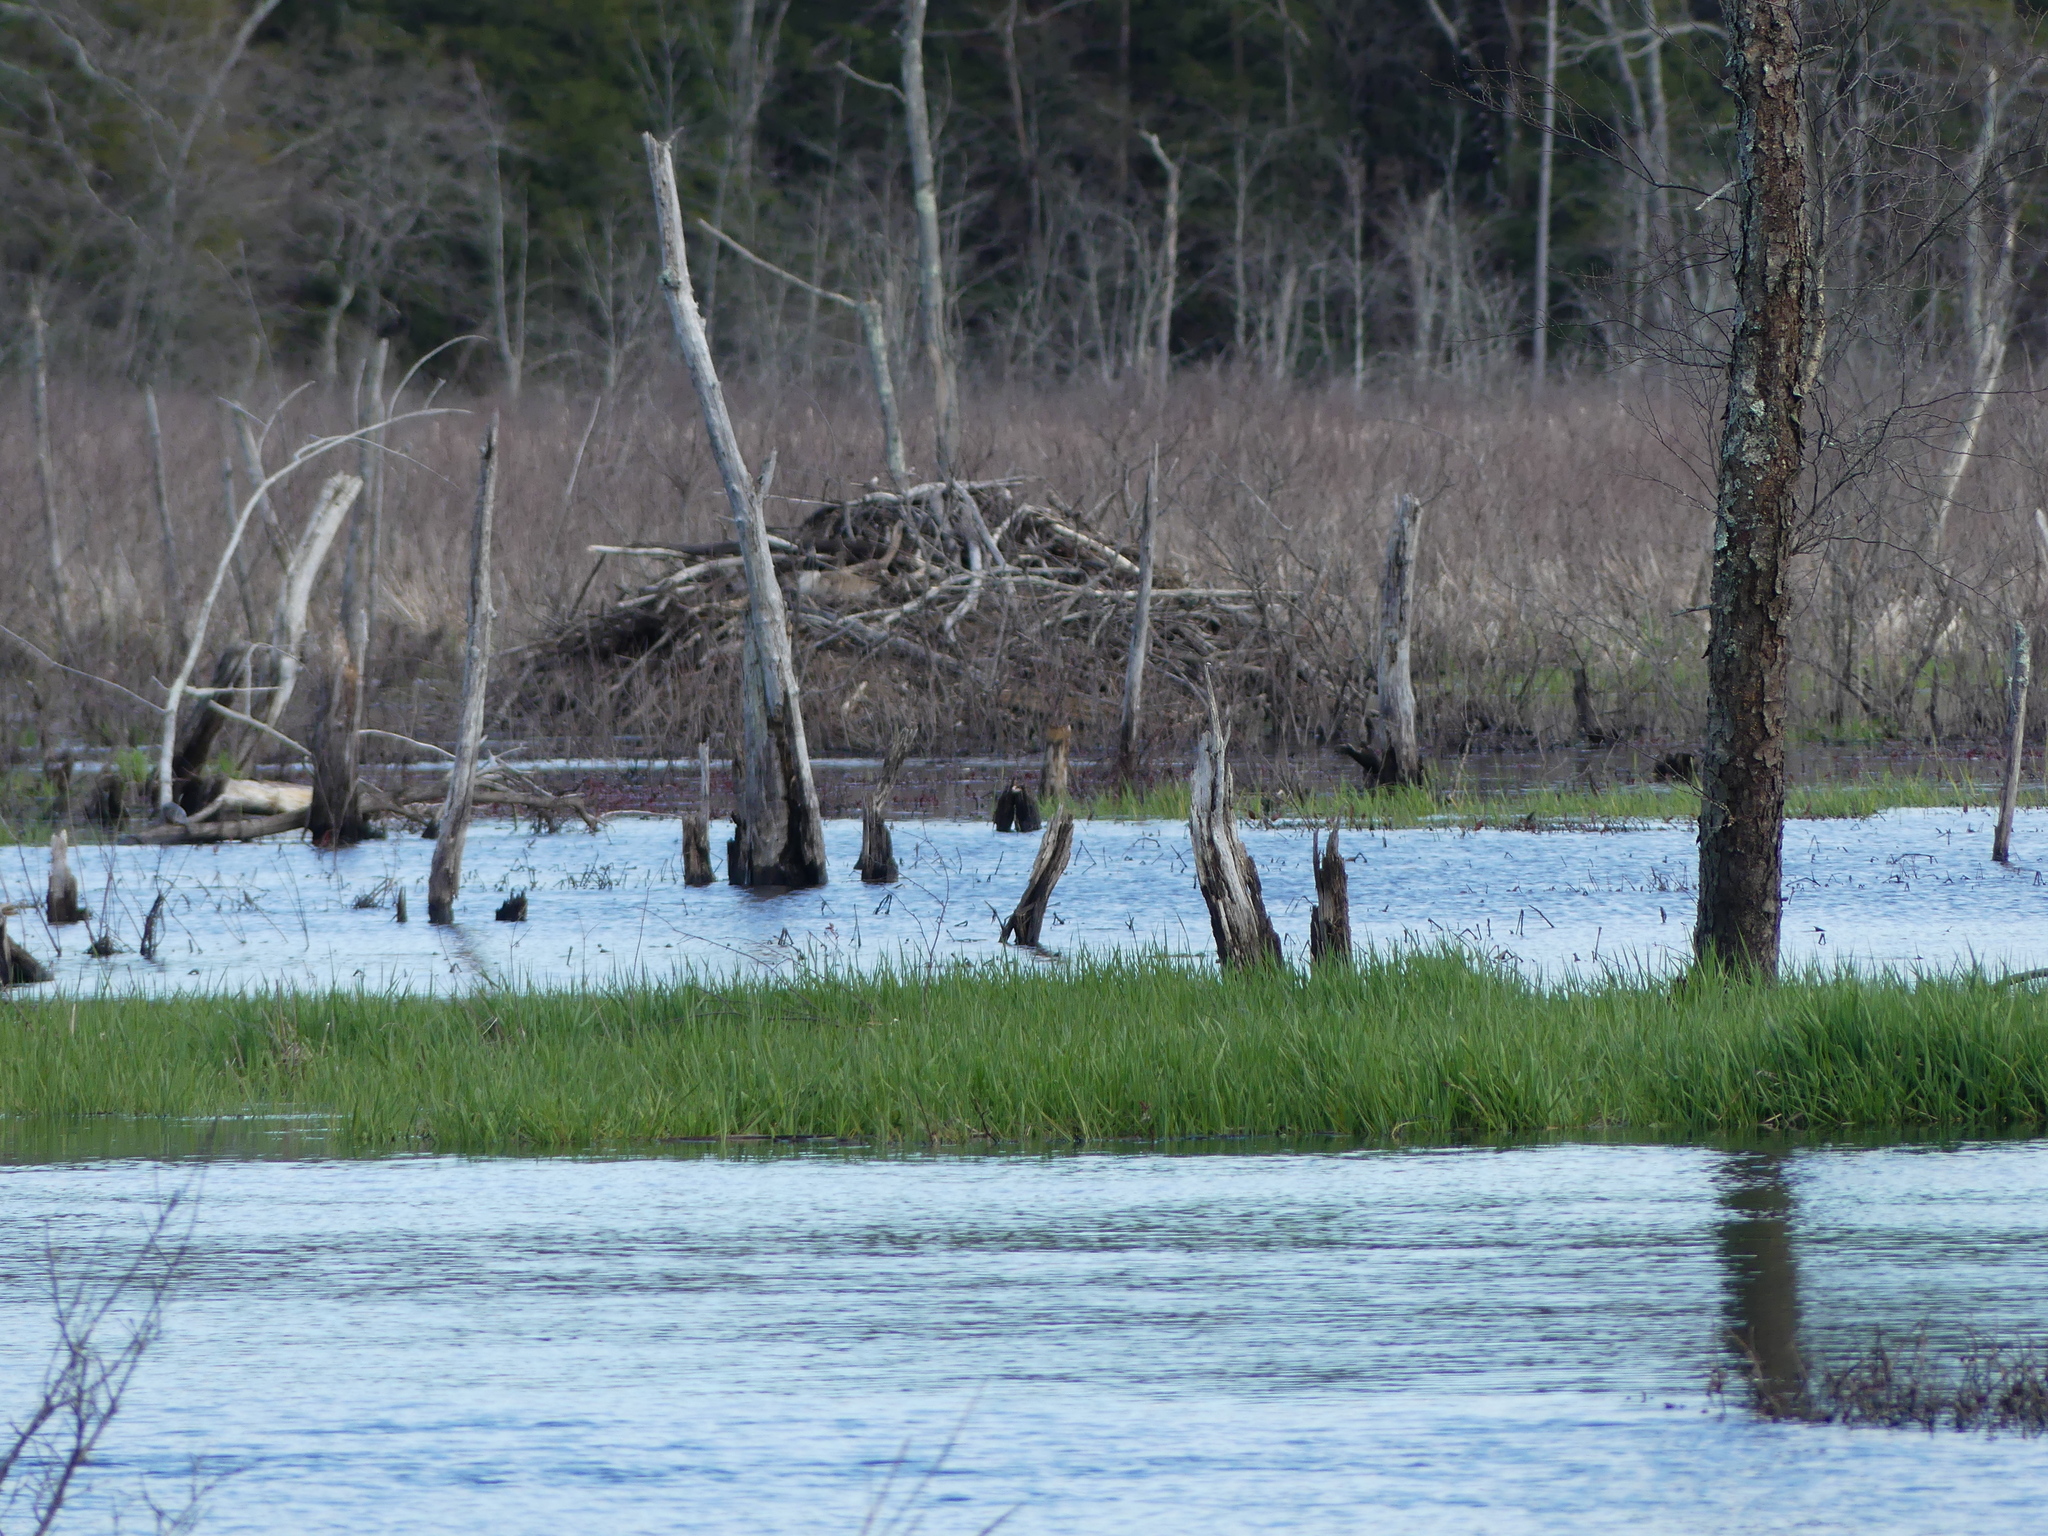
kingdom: Animalia
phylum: Chordata
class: Mammalia
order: Rodentia
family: Castoridae
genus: Castor
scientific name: Castor canadensis
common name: American beaver
